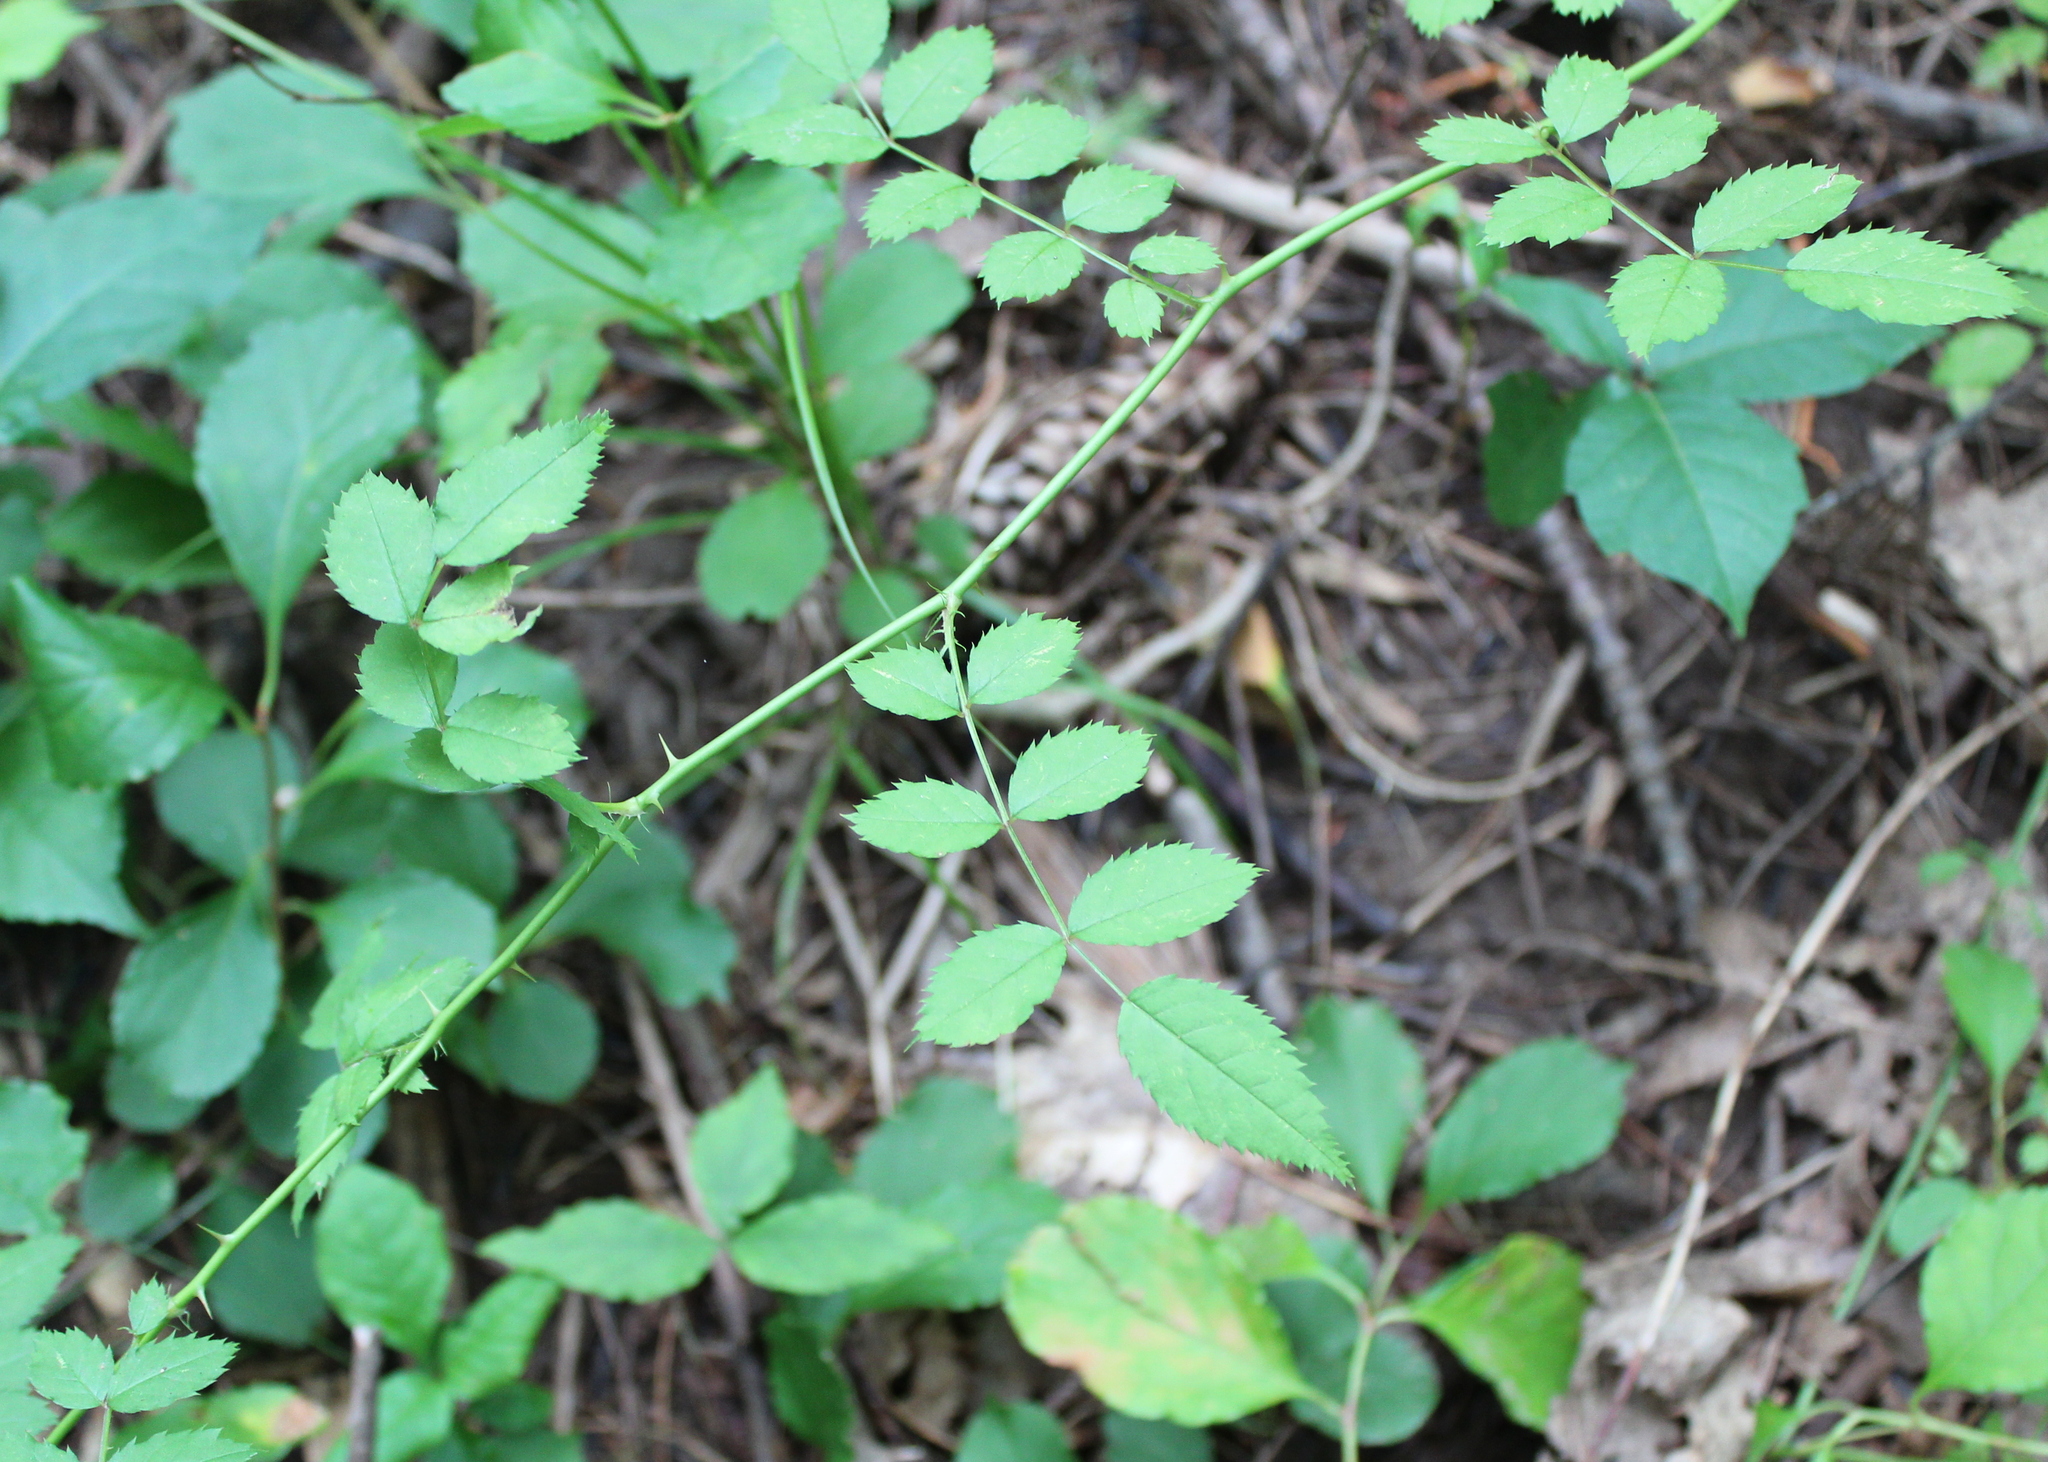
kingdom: Plantae
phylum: Tracheophyta
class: Magnoliopsida
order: Rosales
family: Rosaceae
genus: Rosa
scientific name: Rosa multiflora
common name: Multiflora rose
